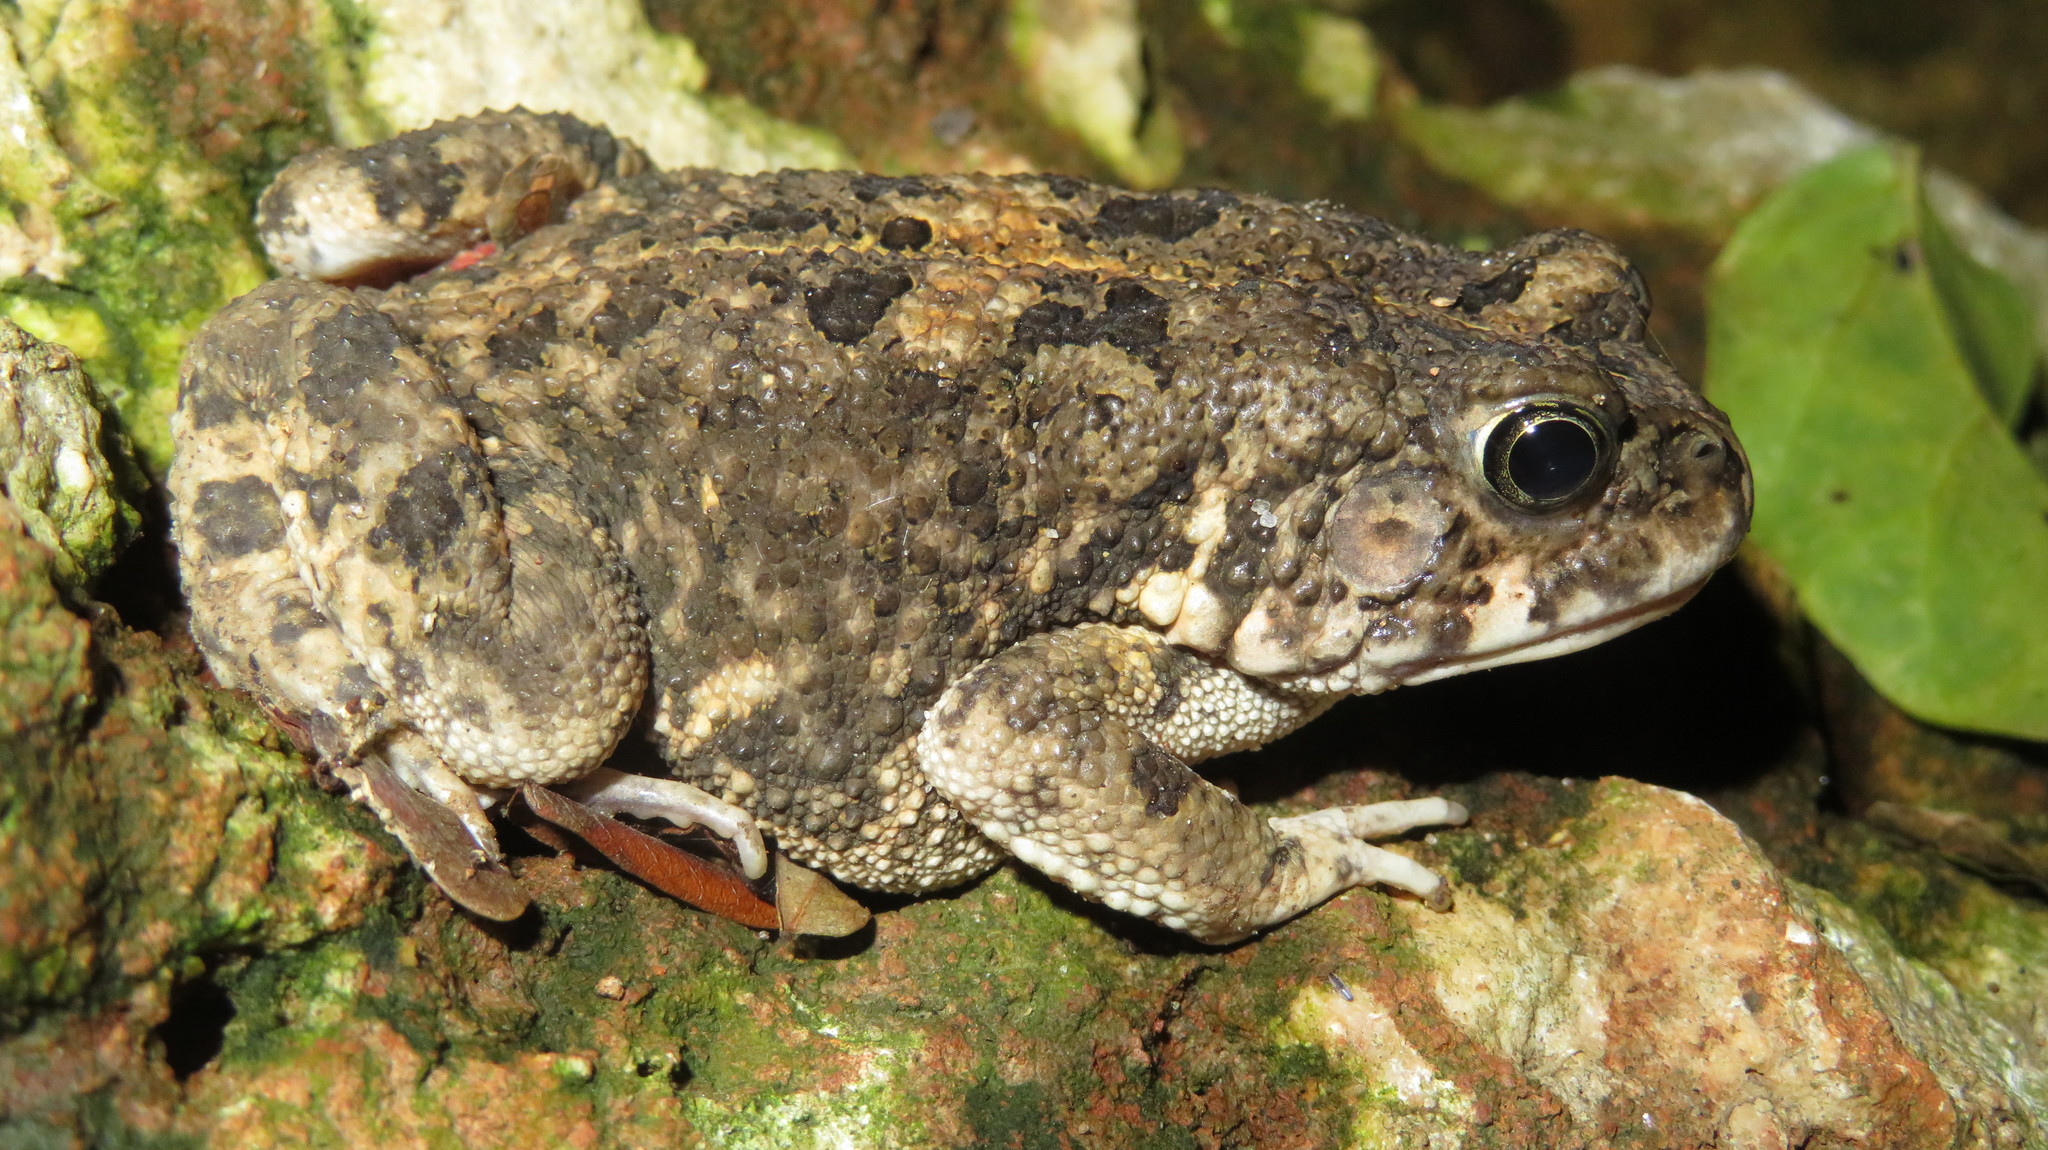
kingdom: Animalia
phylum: Chordata
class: Amphibia
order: Anura
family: Bufonidae
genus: Sclerophrys
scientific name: Sclerophrys gutturalis
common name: African common toad
